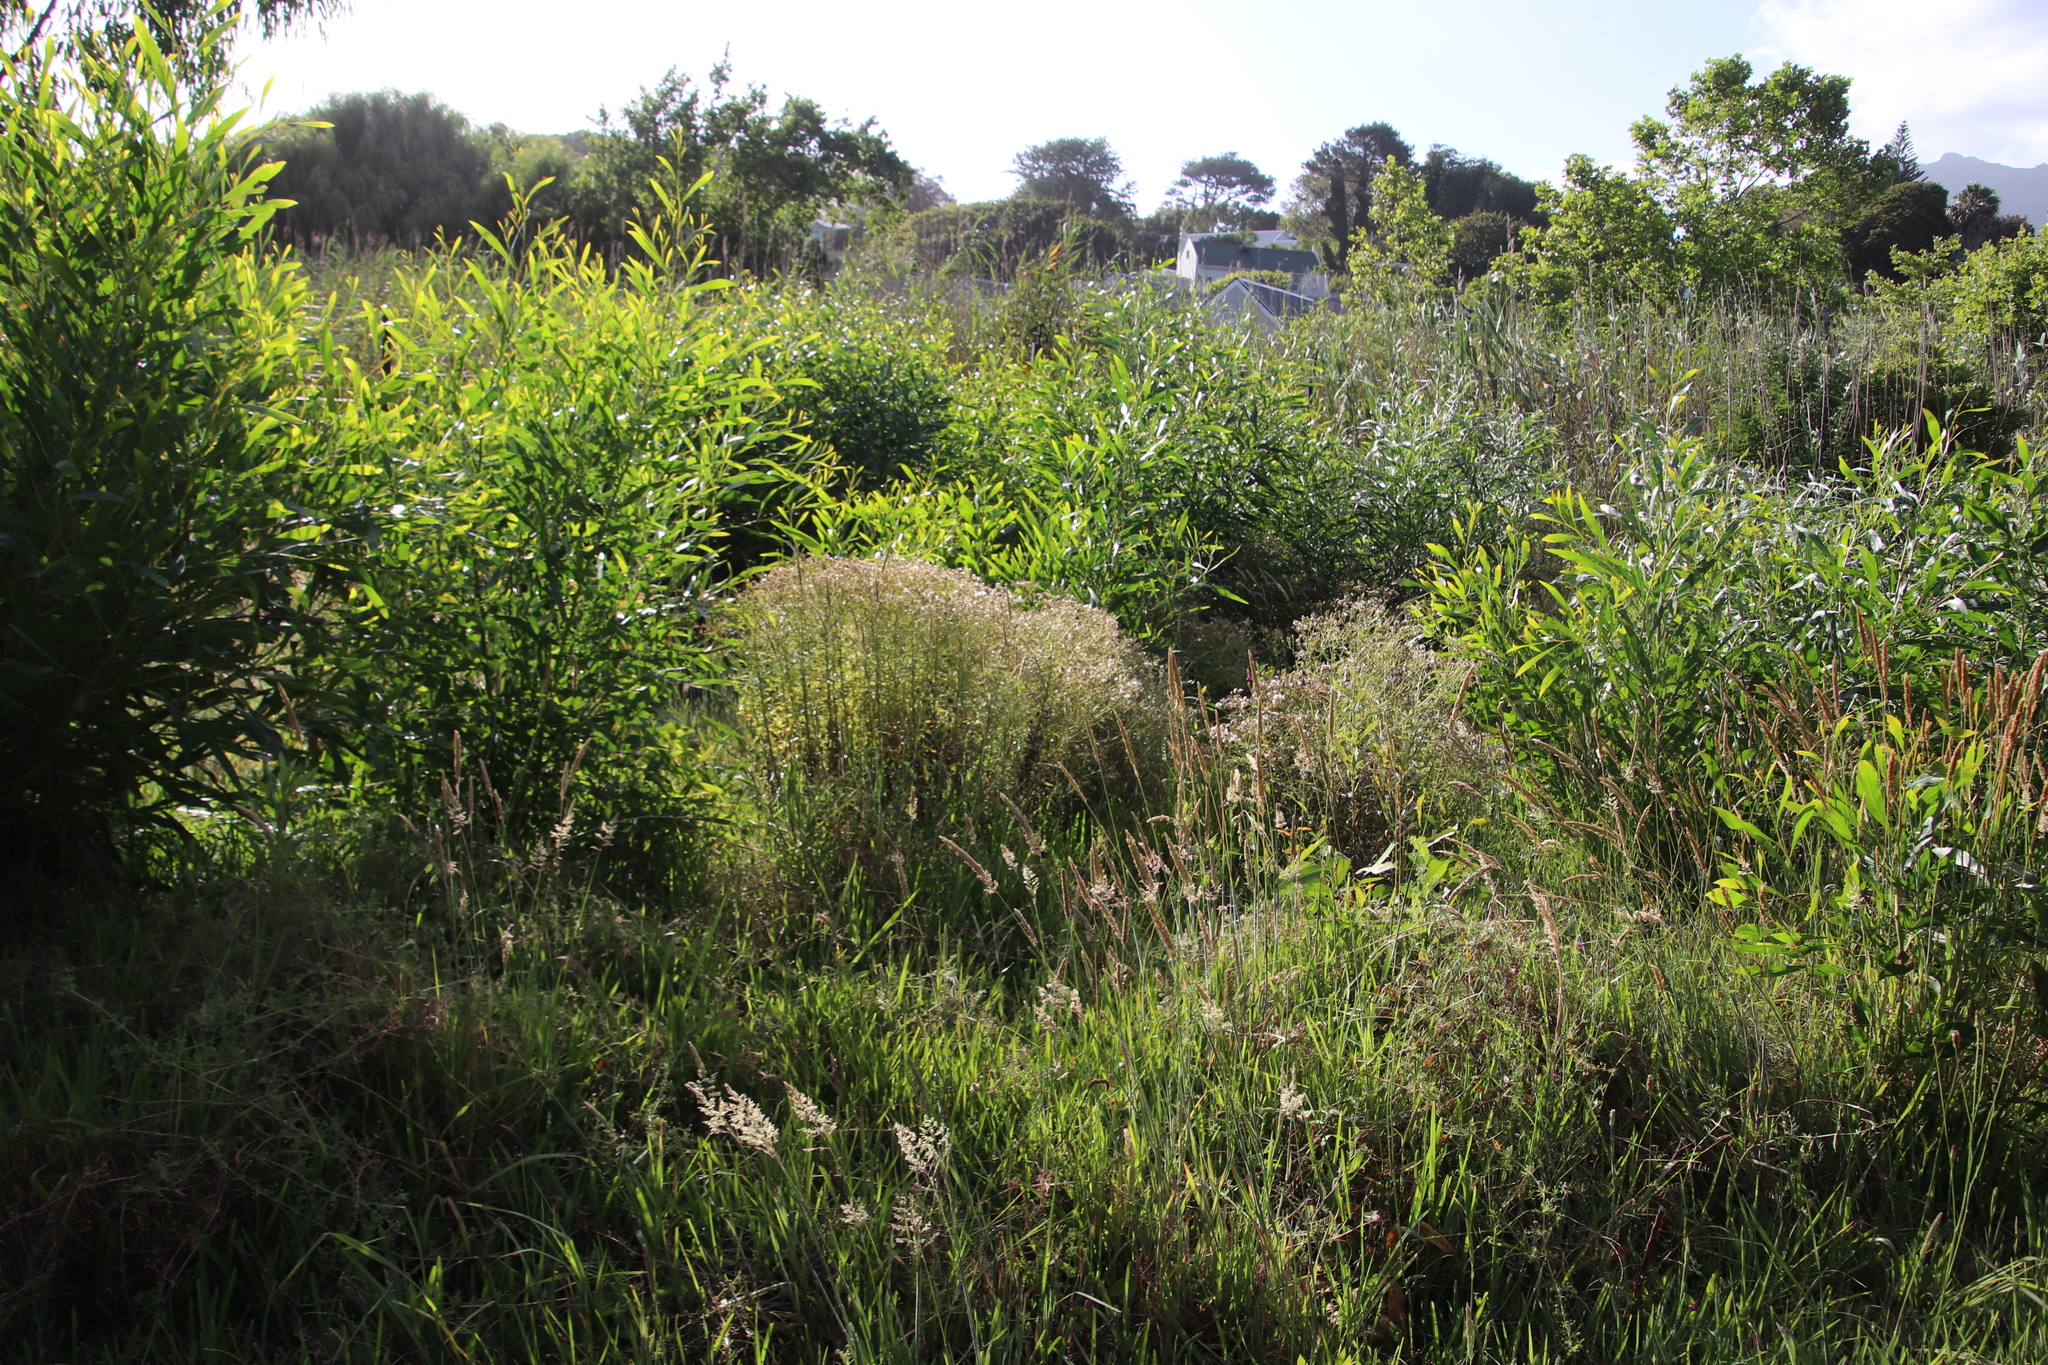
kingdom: Plantae
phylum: Tracheophyta
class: Magnoliopsida
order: Asterales
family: Asteraceae
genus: Senecio
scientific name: Senecio pterophorus
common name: Shoddy ragwort
